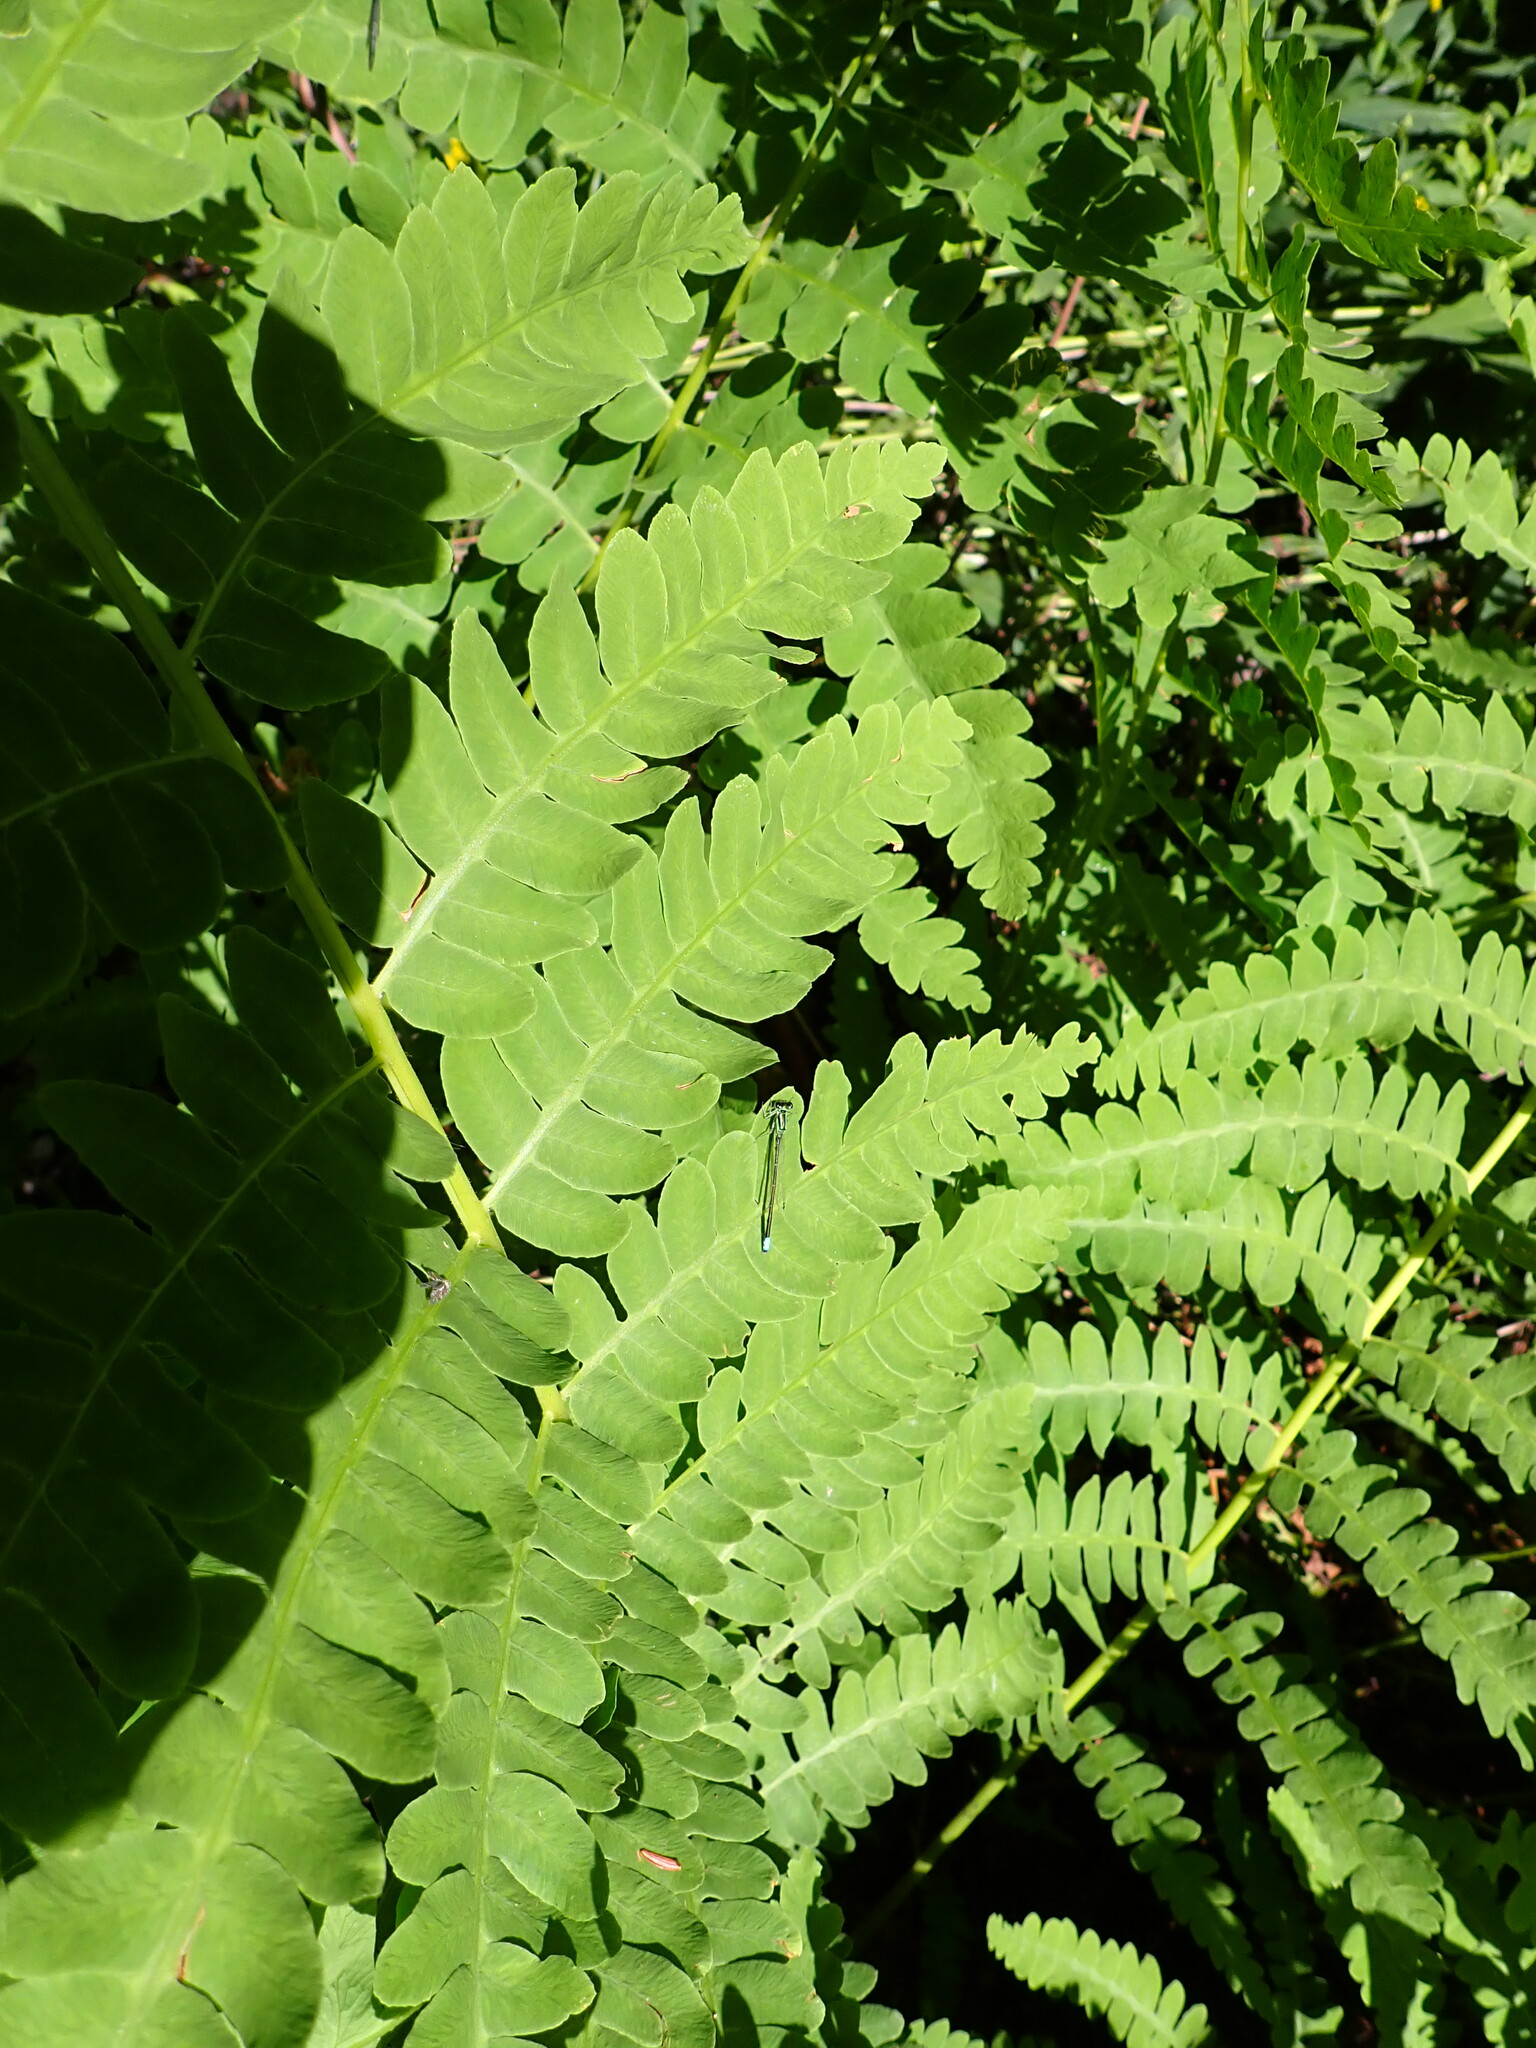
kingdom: Plantae
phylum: Tracheophyta
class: Polypodiopsida
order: Osmundales
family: Osmundaceae
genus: Claytosmunda
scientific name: Claytosmunda claytoniana
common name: Clayton's fern
